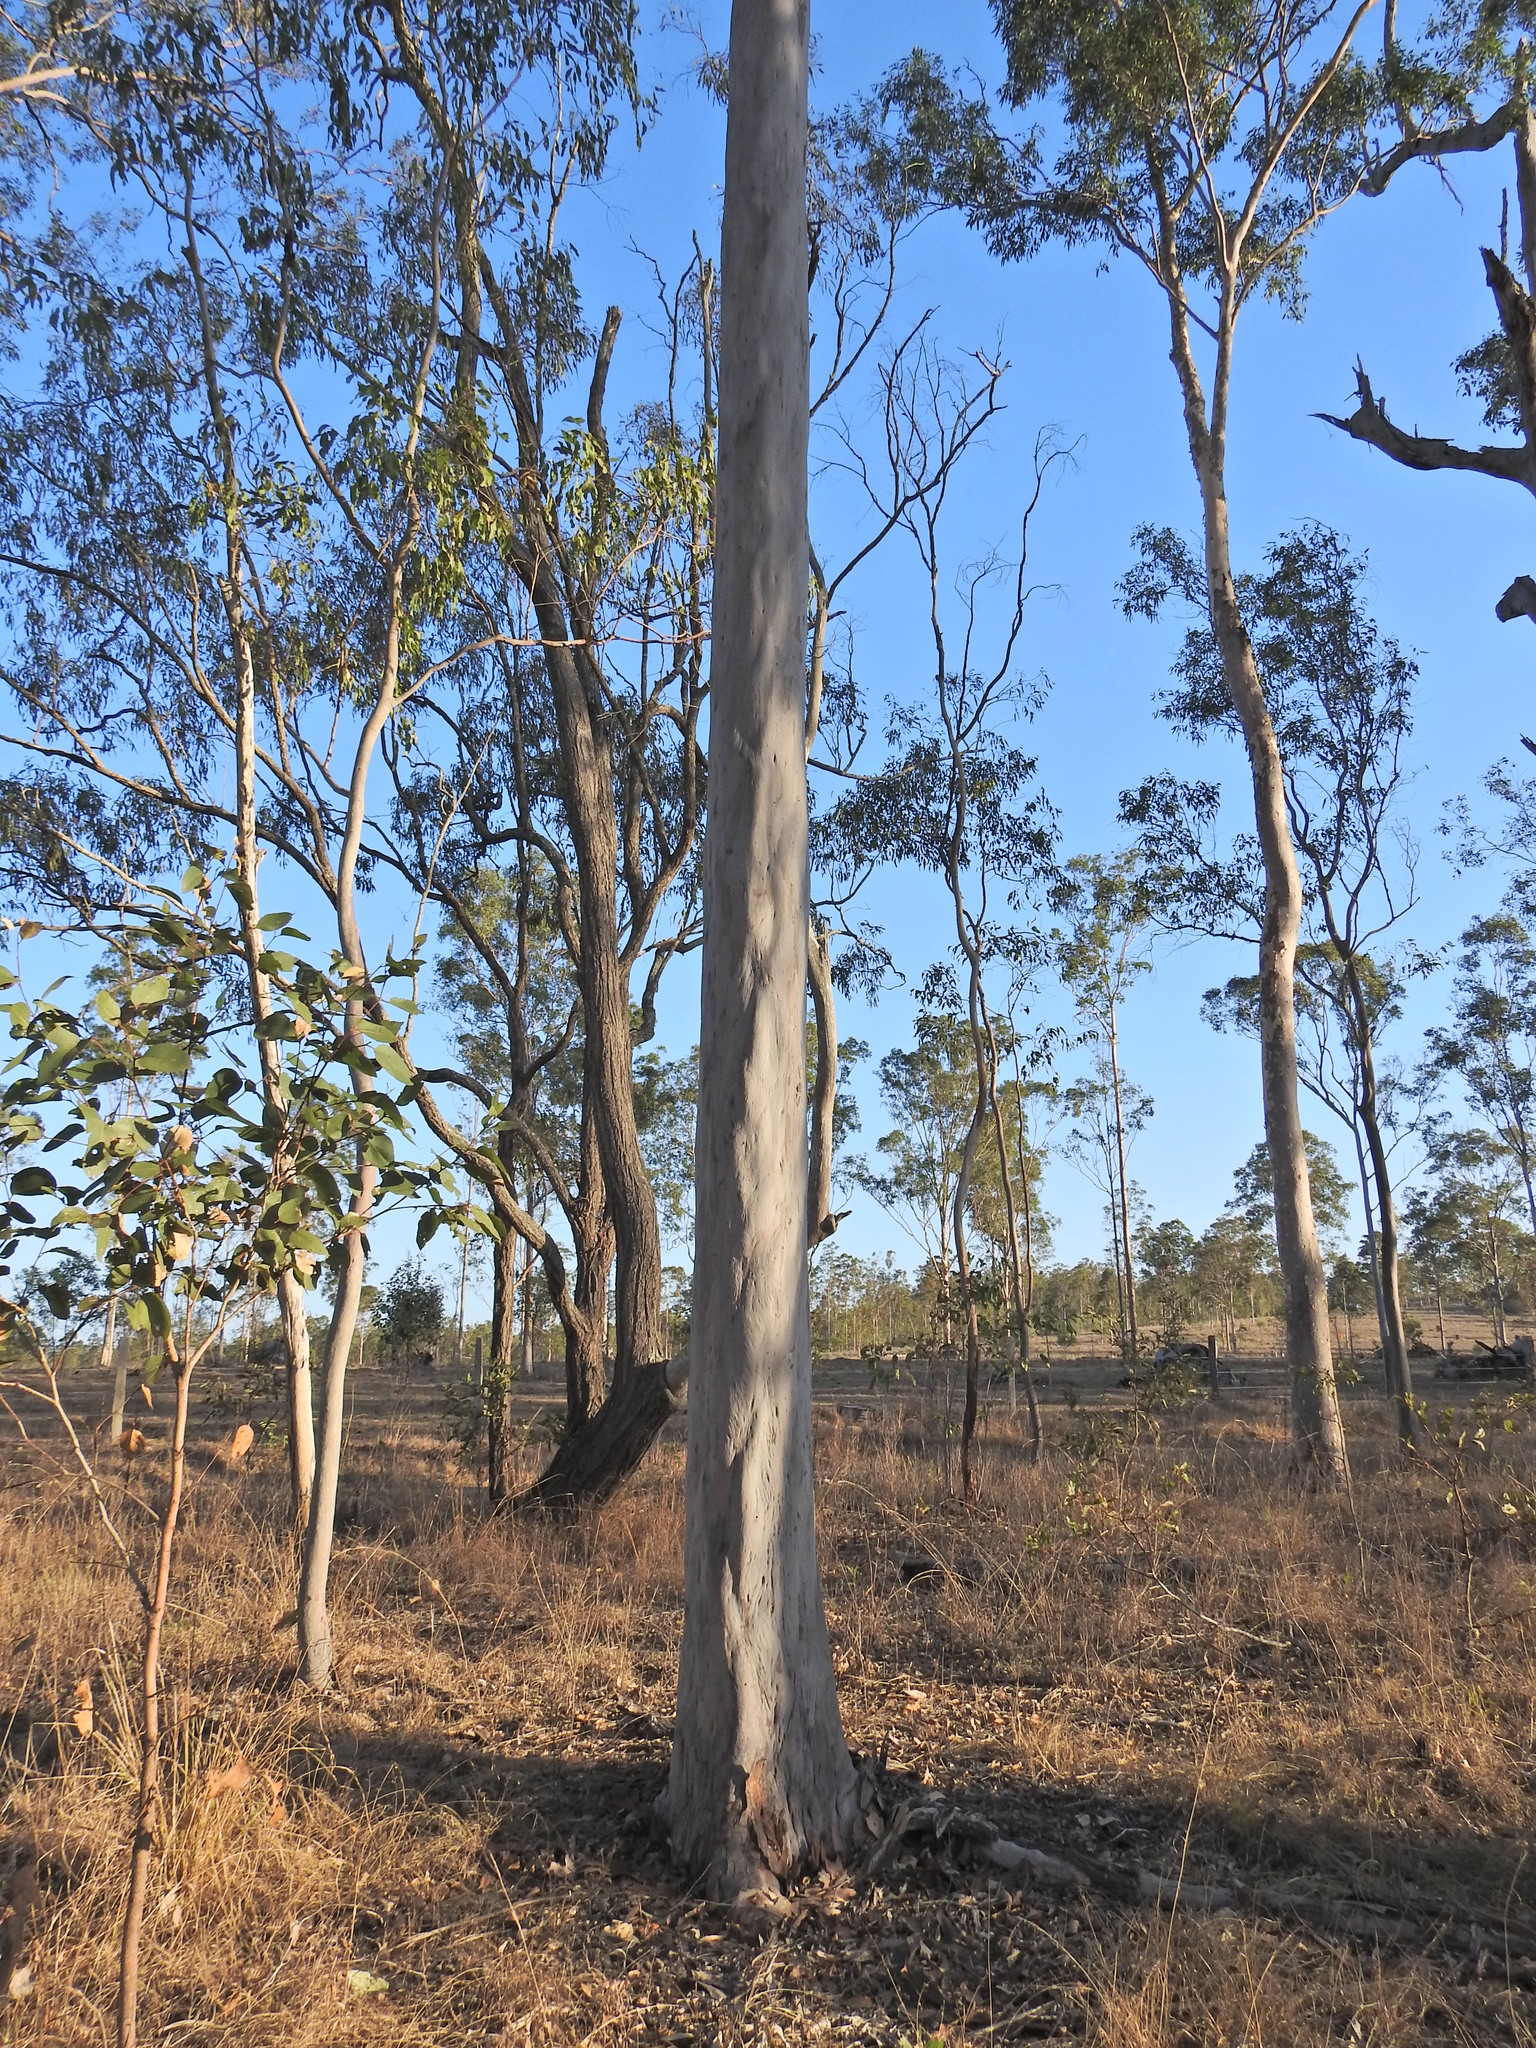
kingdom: Plantae
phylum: Tracheophyta
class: Magnoliopsida
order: Myrtales
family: Myrtaceae
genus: Corymbia
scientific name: Corymbia citriodora
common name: Lemonscented gum
